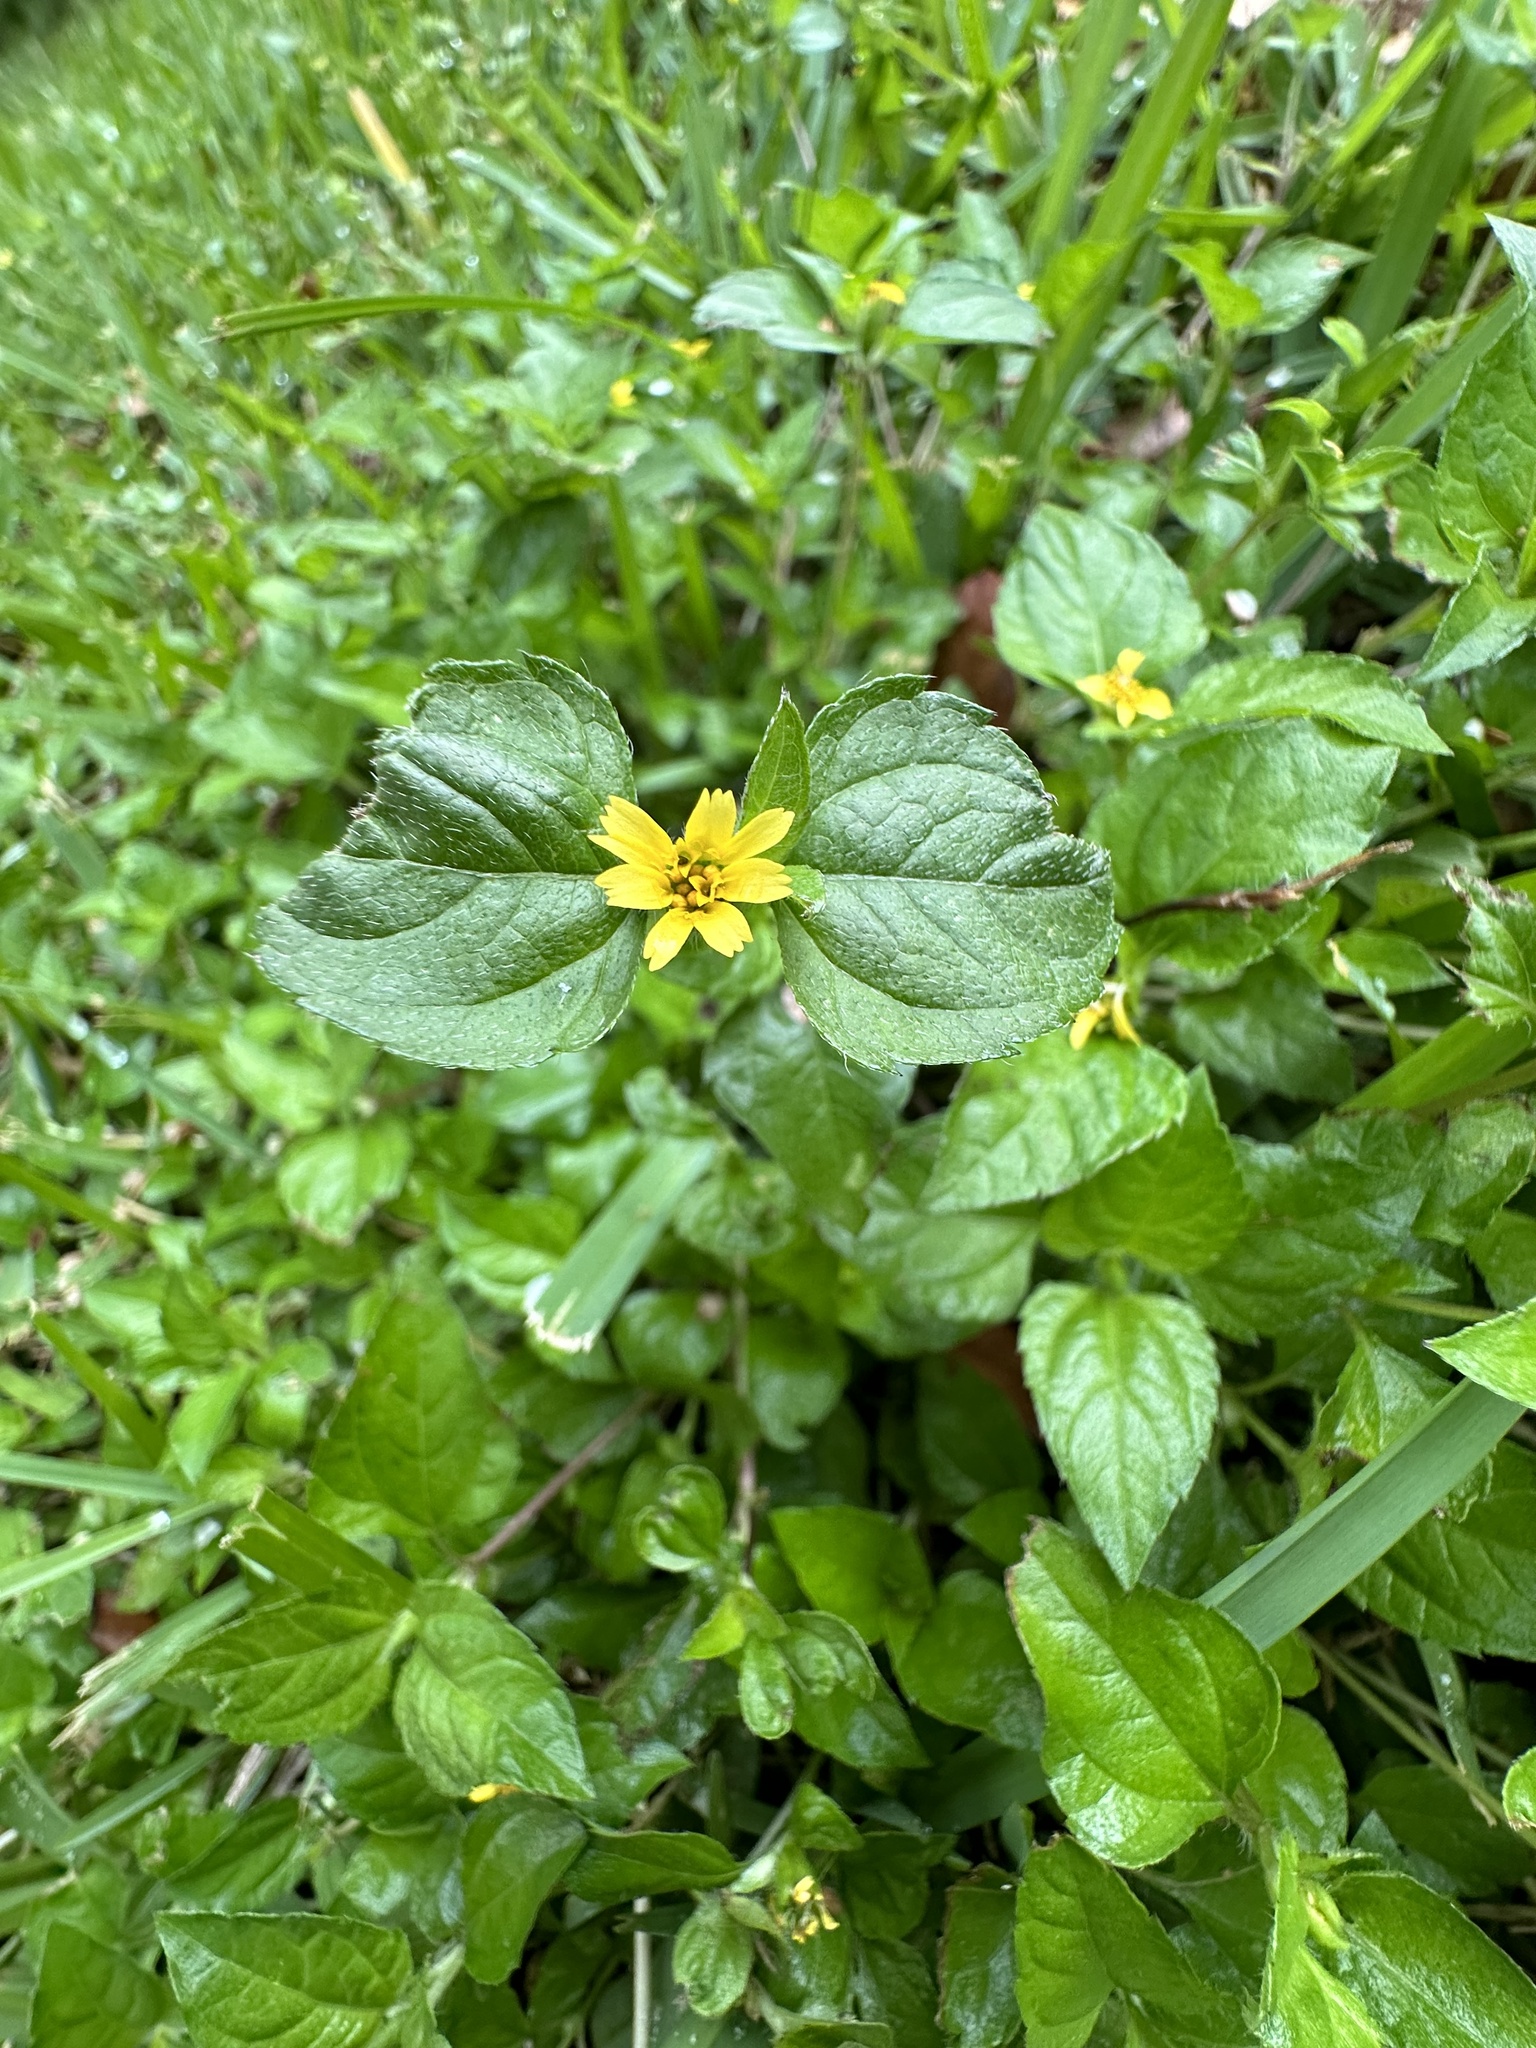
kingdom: Plantae
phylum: Tracheophyta
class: Magnoliopsida
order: Asterales
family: Asteraceae
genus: Calyptocarpus
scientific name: Calyptocarpus vialis
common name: Straggler daisy
